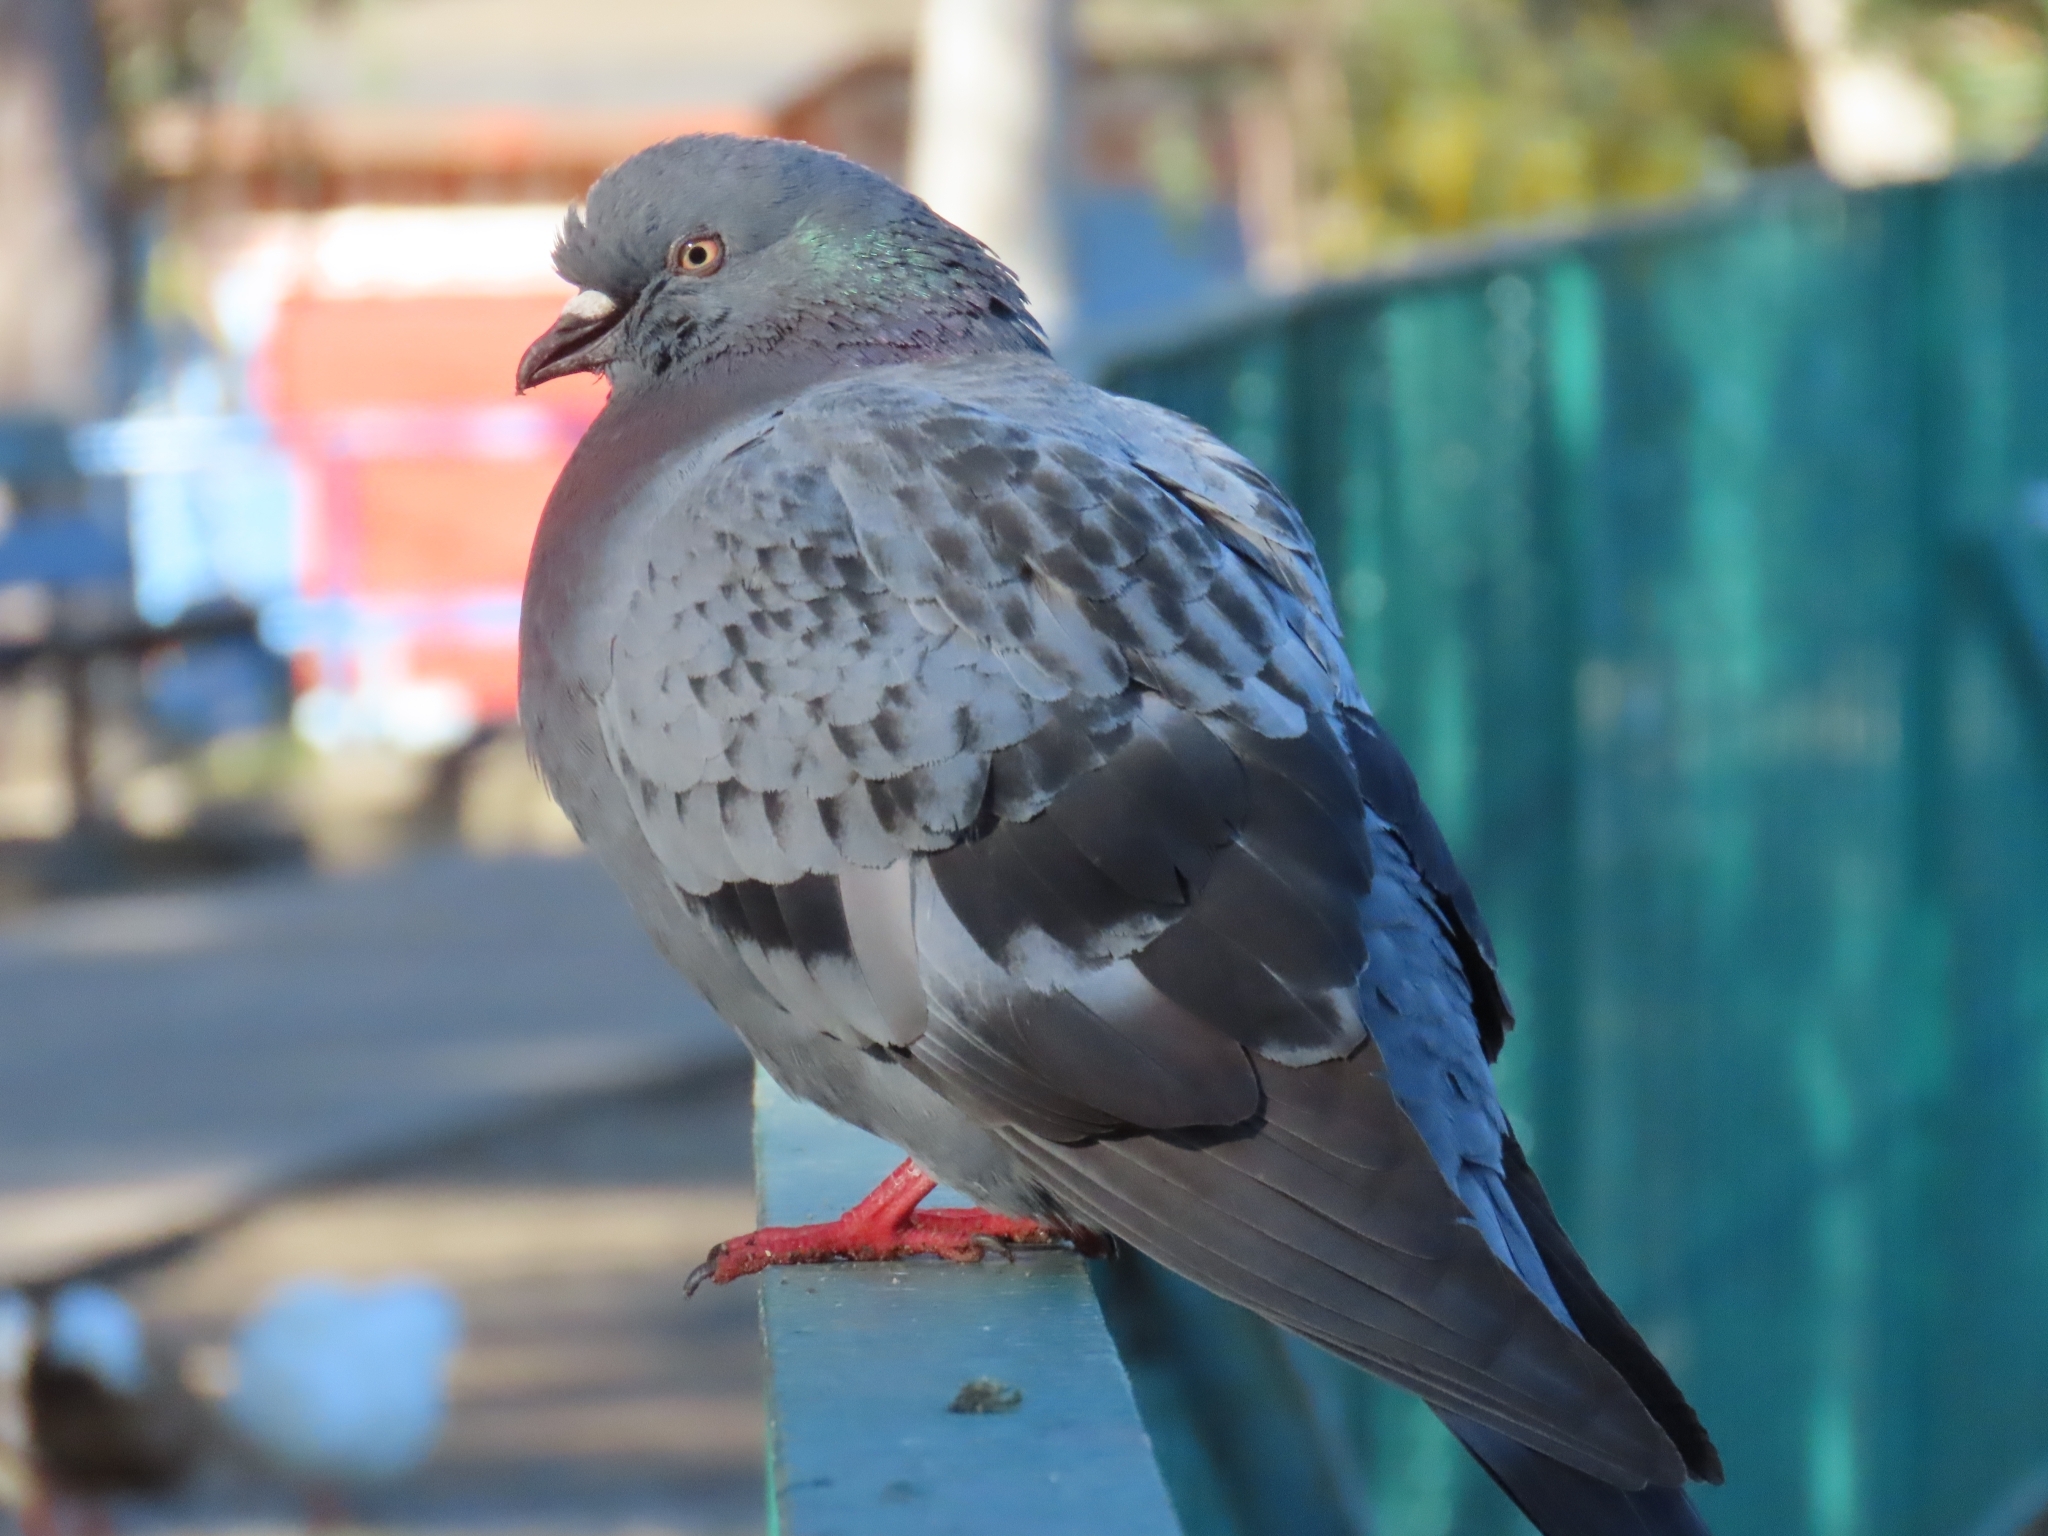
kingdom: Animalia
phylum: Chordata
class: Aves
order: Columbiformes
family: Columbidae
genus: Columba
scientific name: Columba livia
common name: Rock pigeon
